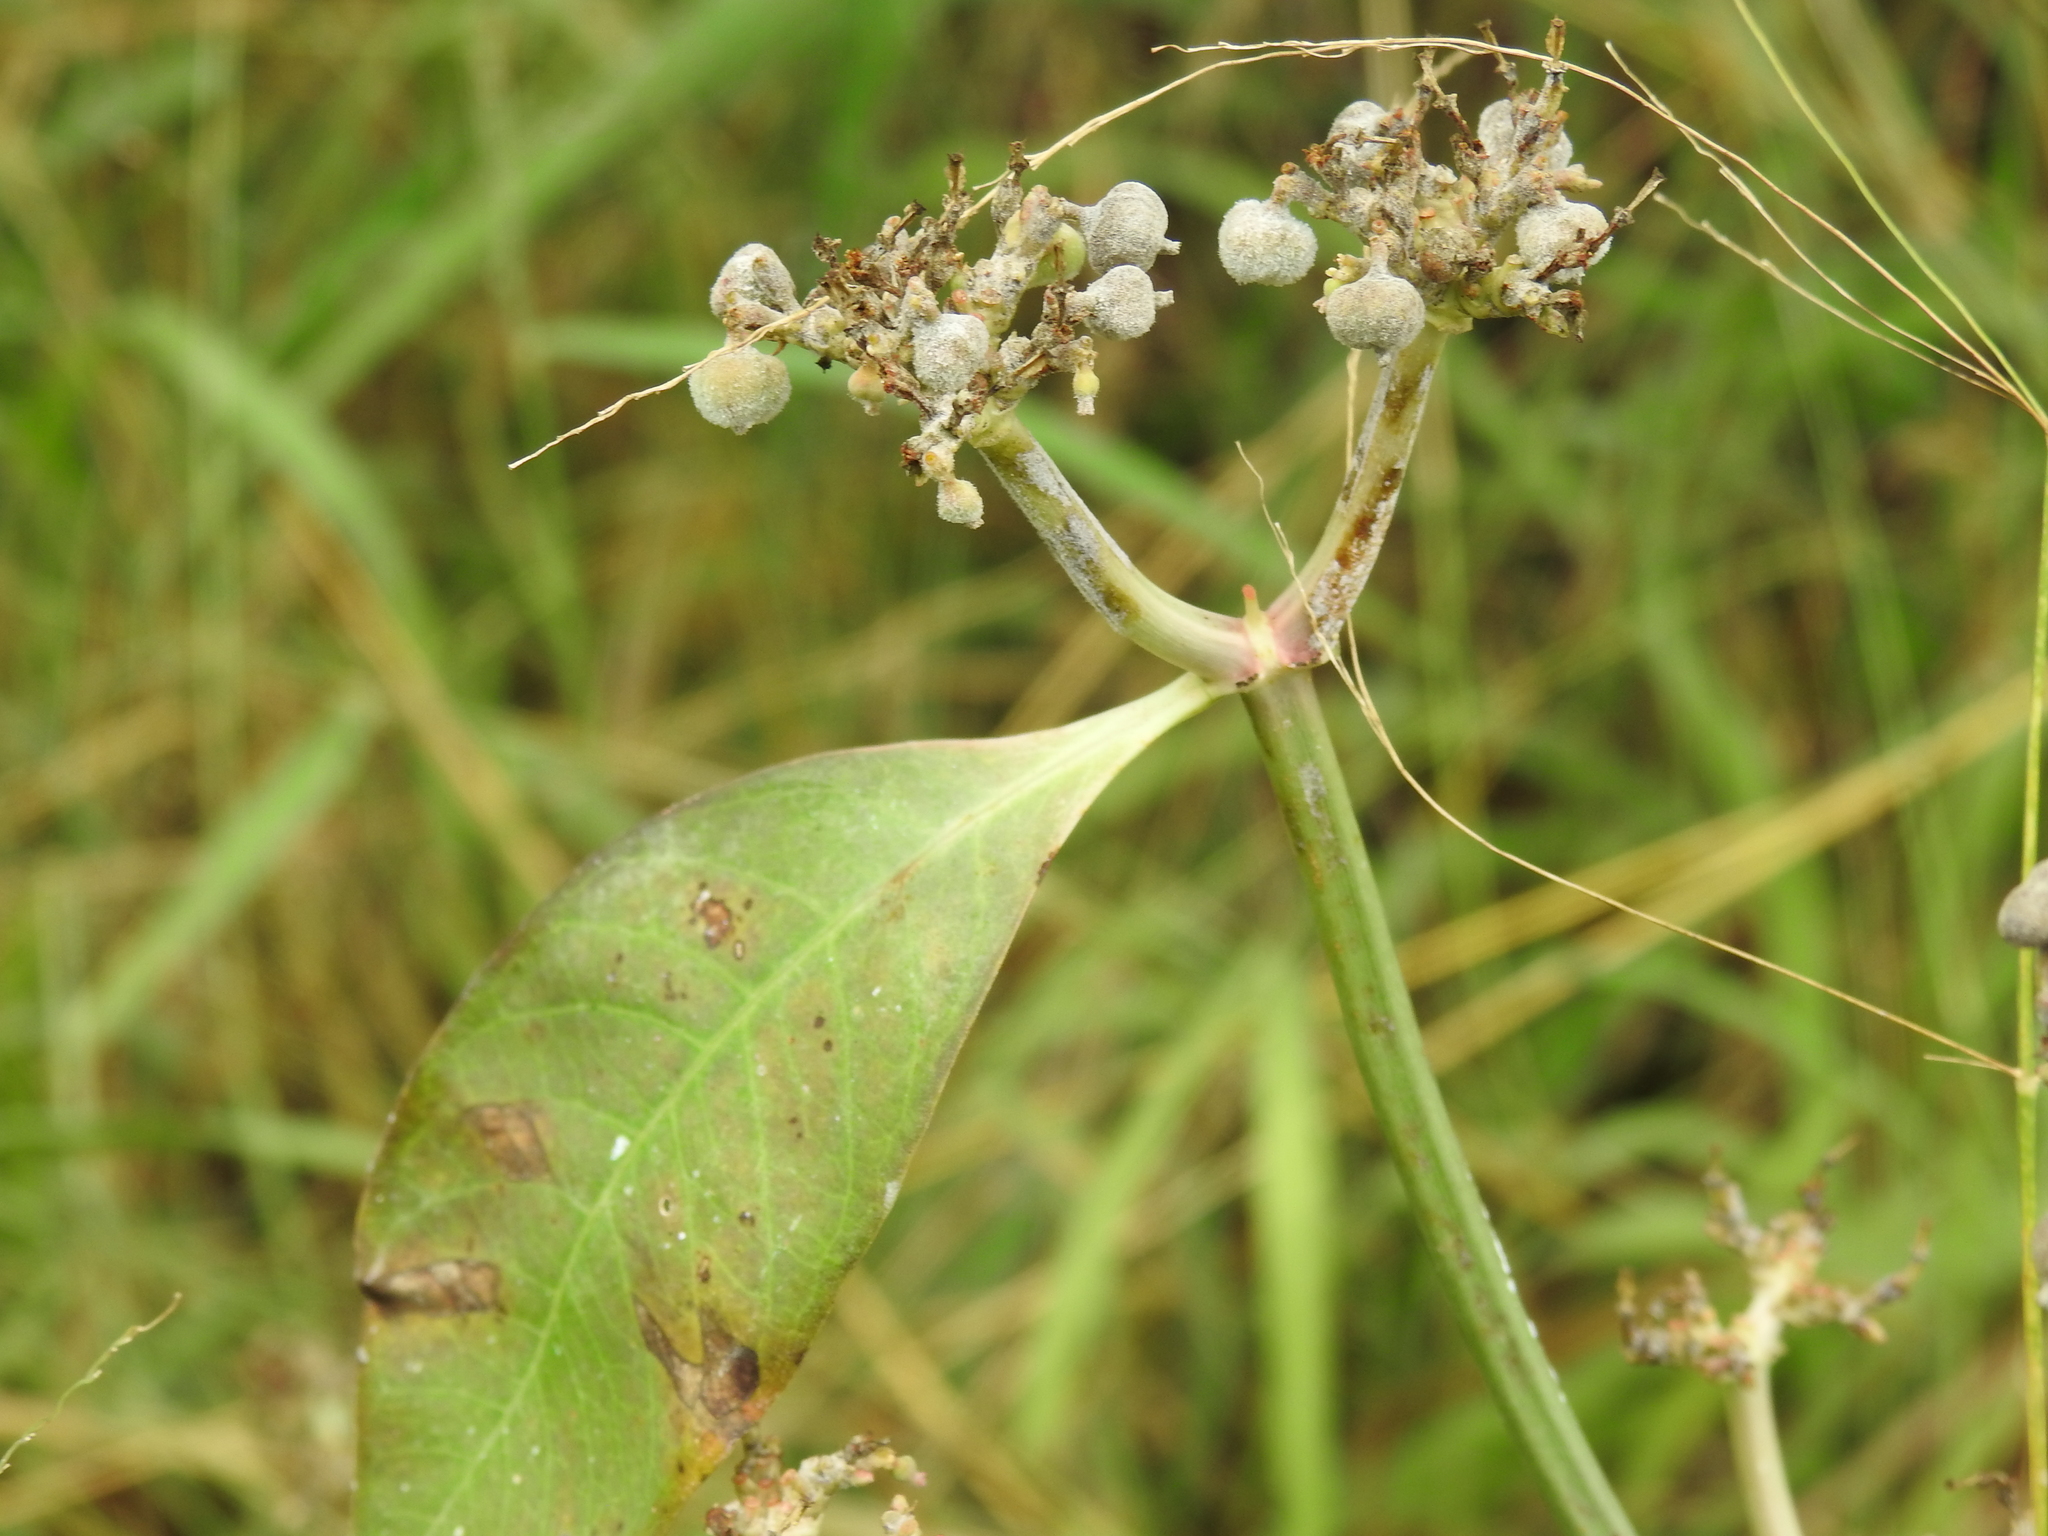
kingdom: Plantae
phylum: Tracheophyta
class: Magnoliopsida
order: Malpighiales
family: Euphorbiaceae
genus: Euphorbia
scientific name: Euphorbia heterophylla
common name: Mexican fireplant
